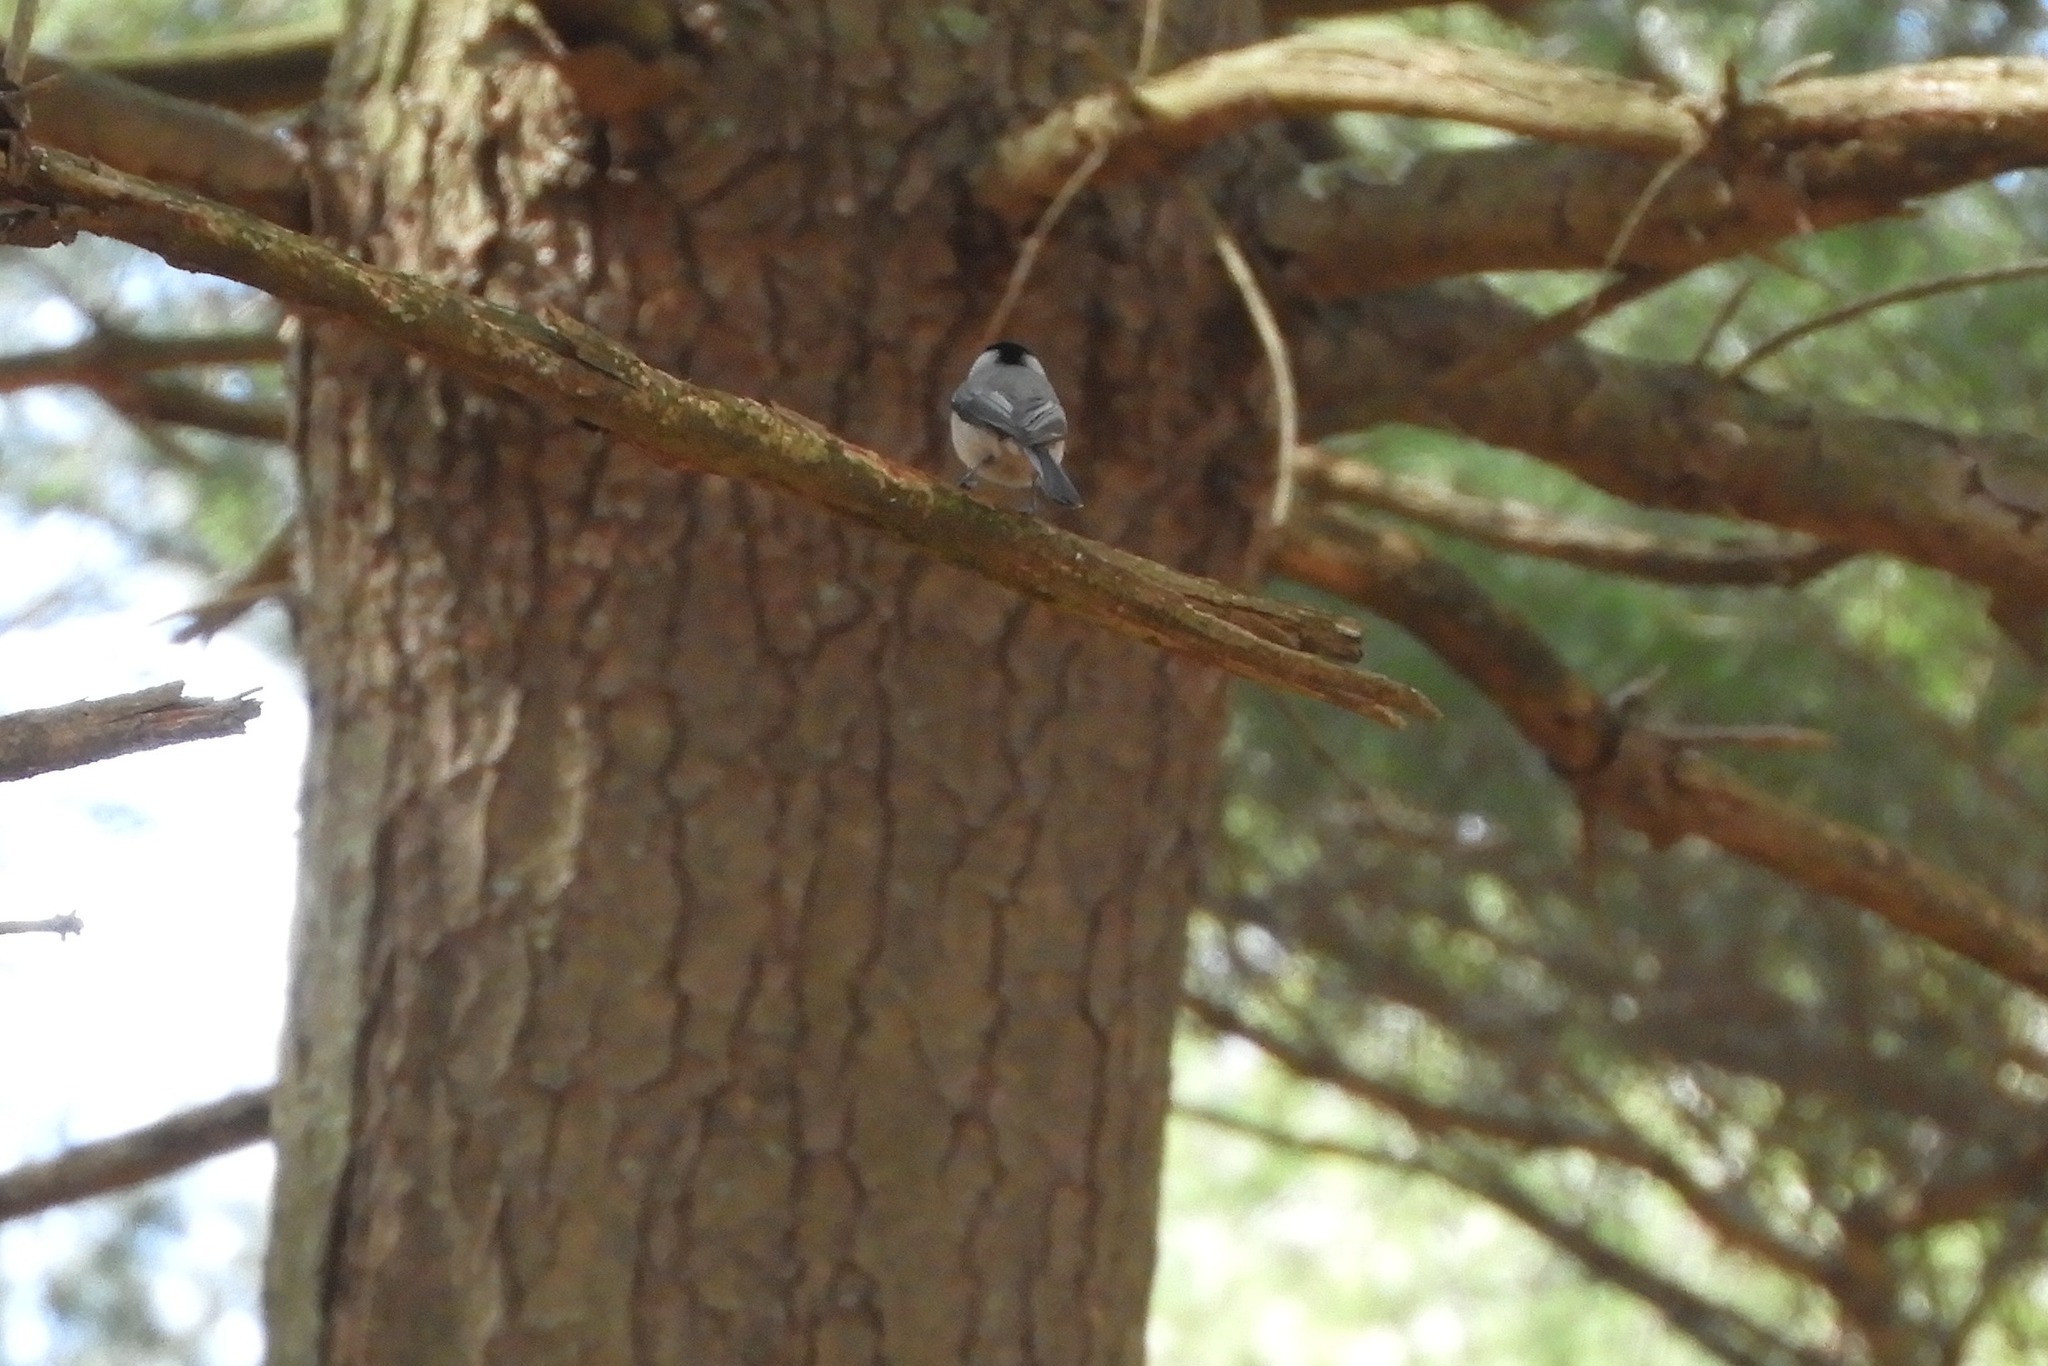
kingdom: Animalia
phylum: Chordata
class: Aves
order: Passeriformes
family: Paridae
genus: Poecile
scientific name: Poecile carolinensis
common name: Carolina chickadee
